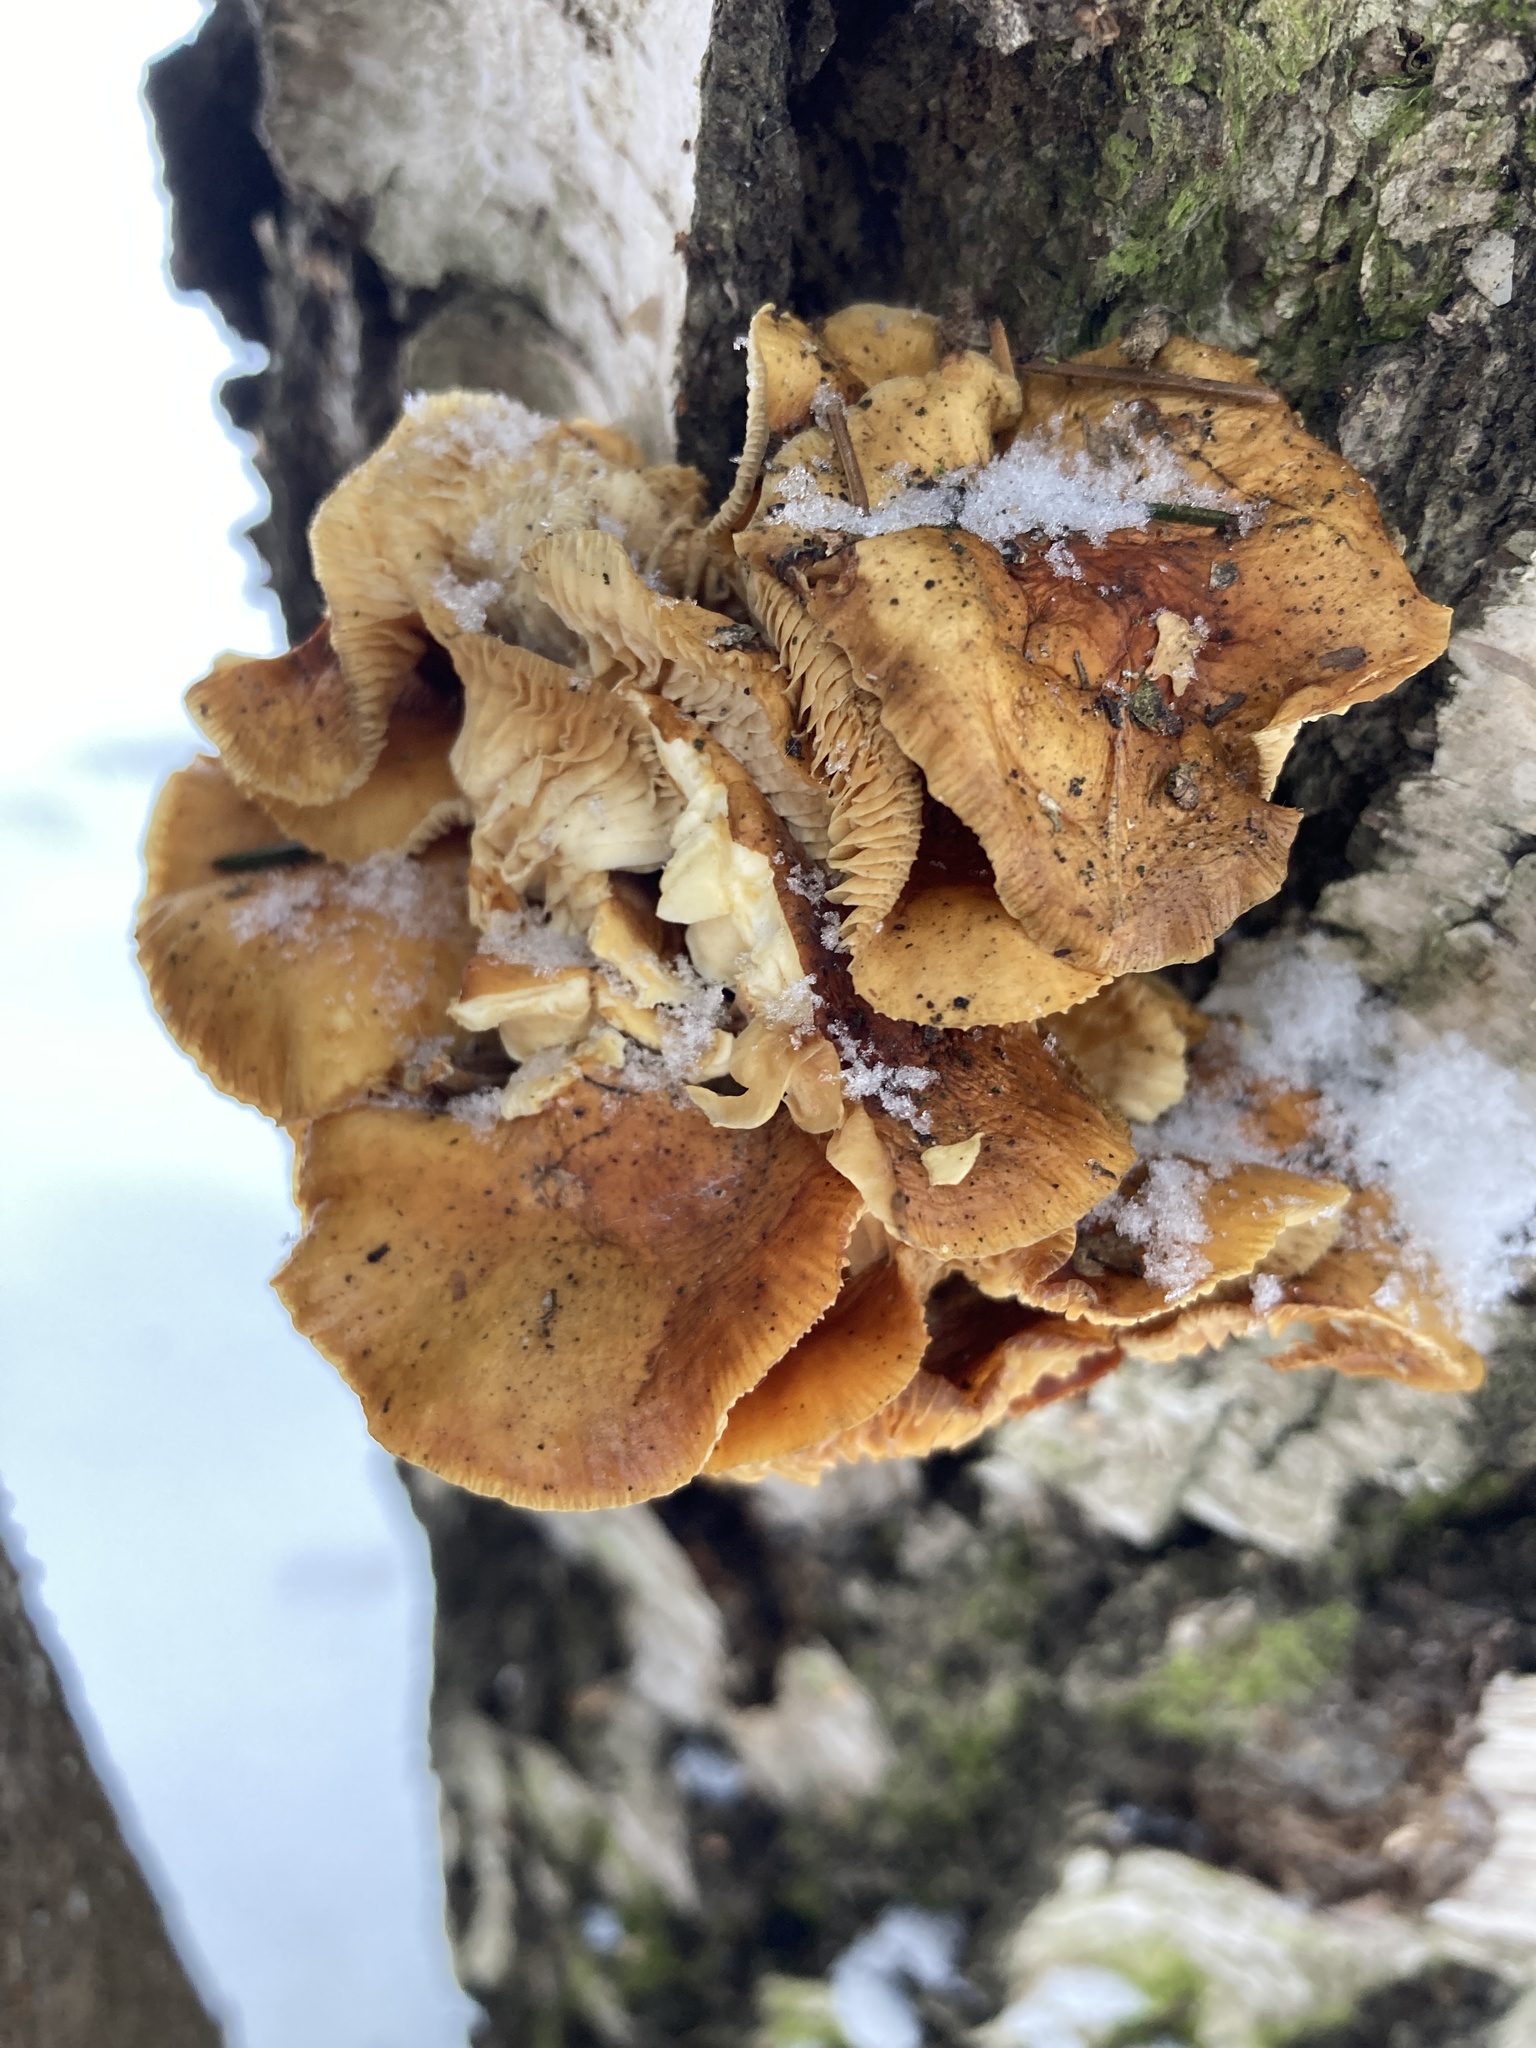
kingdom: Fungi
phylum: Basidiomycota
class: Agaricomycetes
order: Agaricales
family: Physalacriaceae
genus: Flammulina
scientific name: Flammulina
